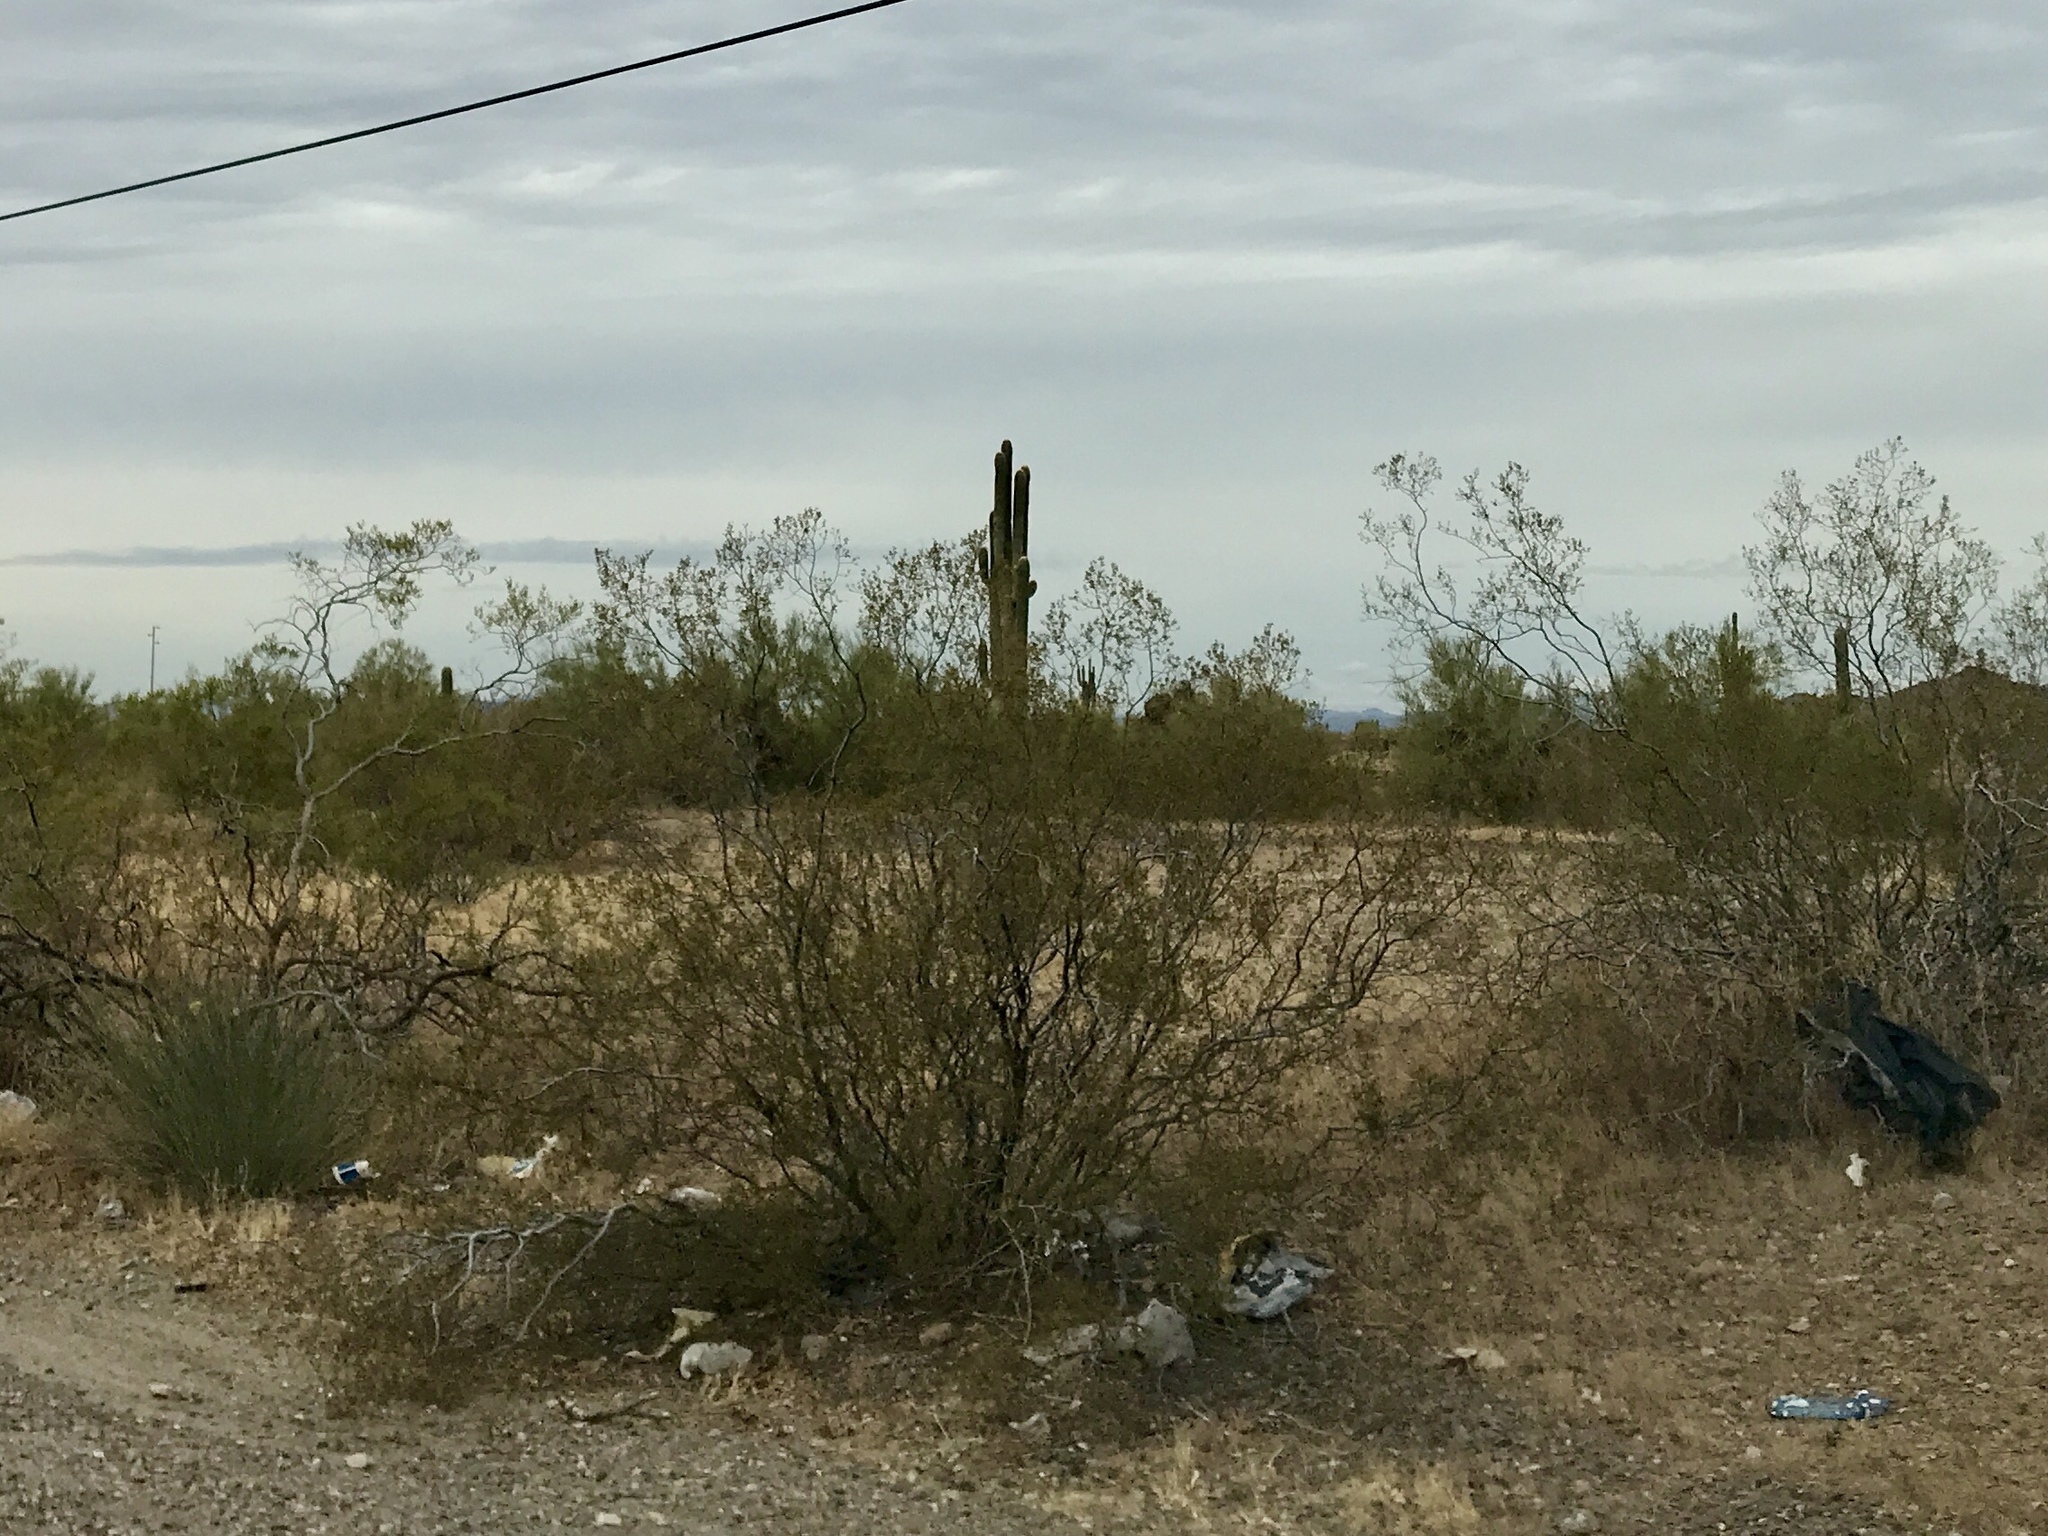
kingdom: Plantae
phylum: Tracheophyta
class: Magnoliopsida
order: Zygophyllales
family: Zygophyllaceae
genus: Larrea
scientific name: Larrea tridentata
